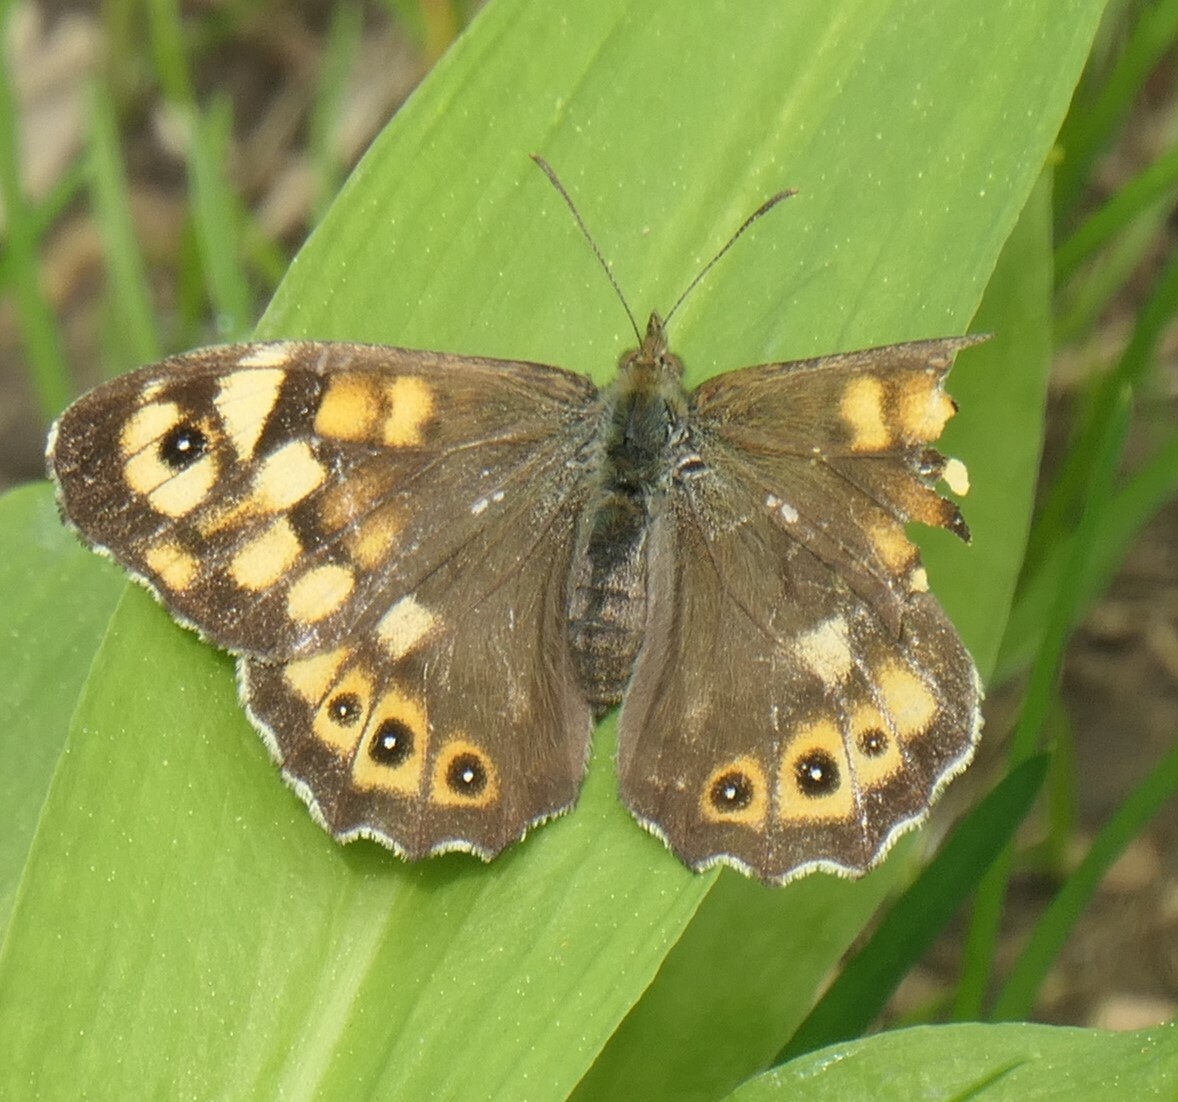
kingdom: Animalia
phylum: Arthropoda
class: Insecta
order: Lepidoptera
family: Nymphalidae
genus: Pararge
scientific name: Pararge aegeria
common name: Speckled wood
